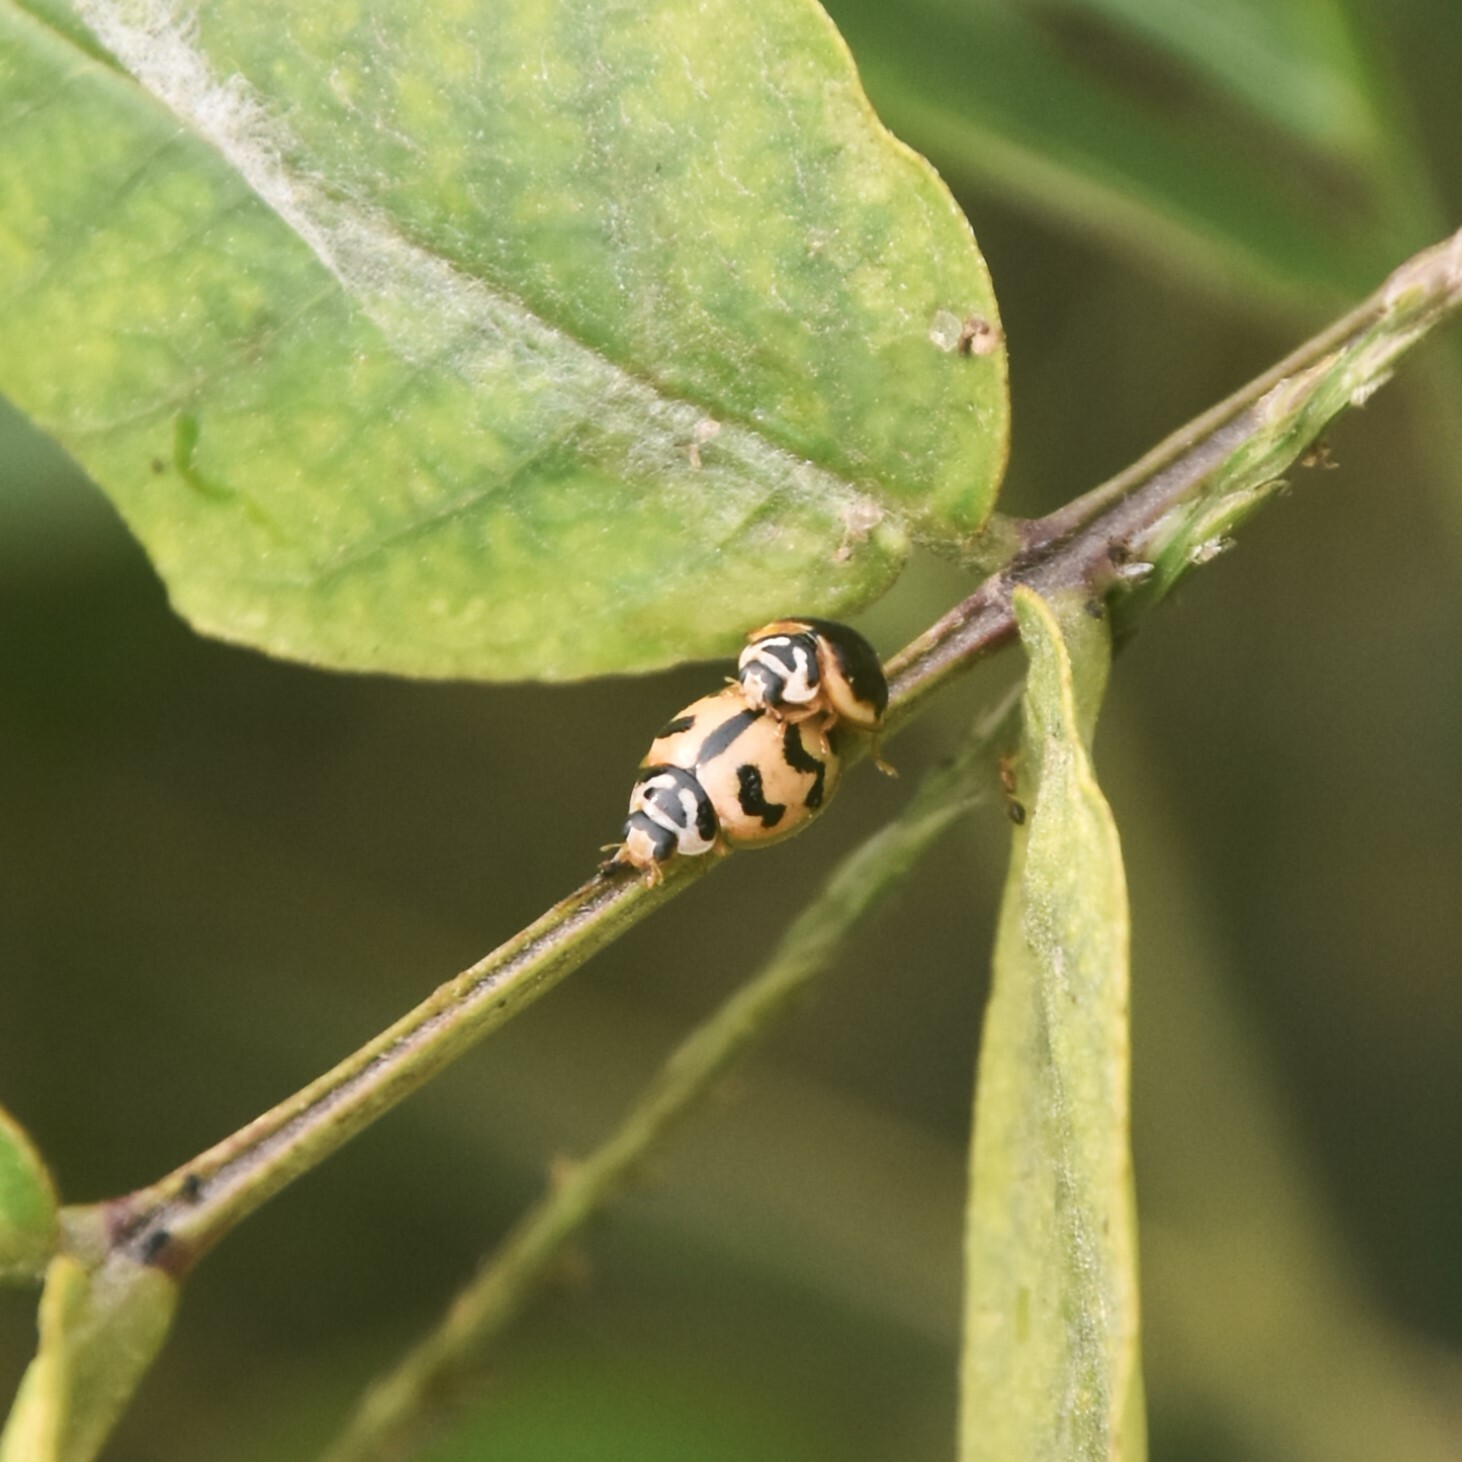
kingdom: Animalia
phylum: Arthropoda
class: Insecta
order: Coleoptera
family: Coccinellidae
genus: Cheilomenes
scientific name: Cheilomenes sexmaculata
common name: Ladybird beetle
